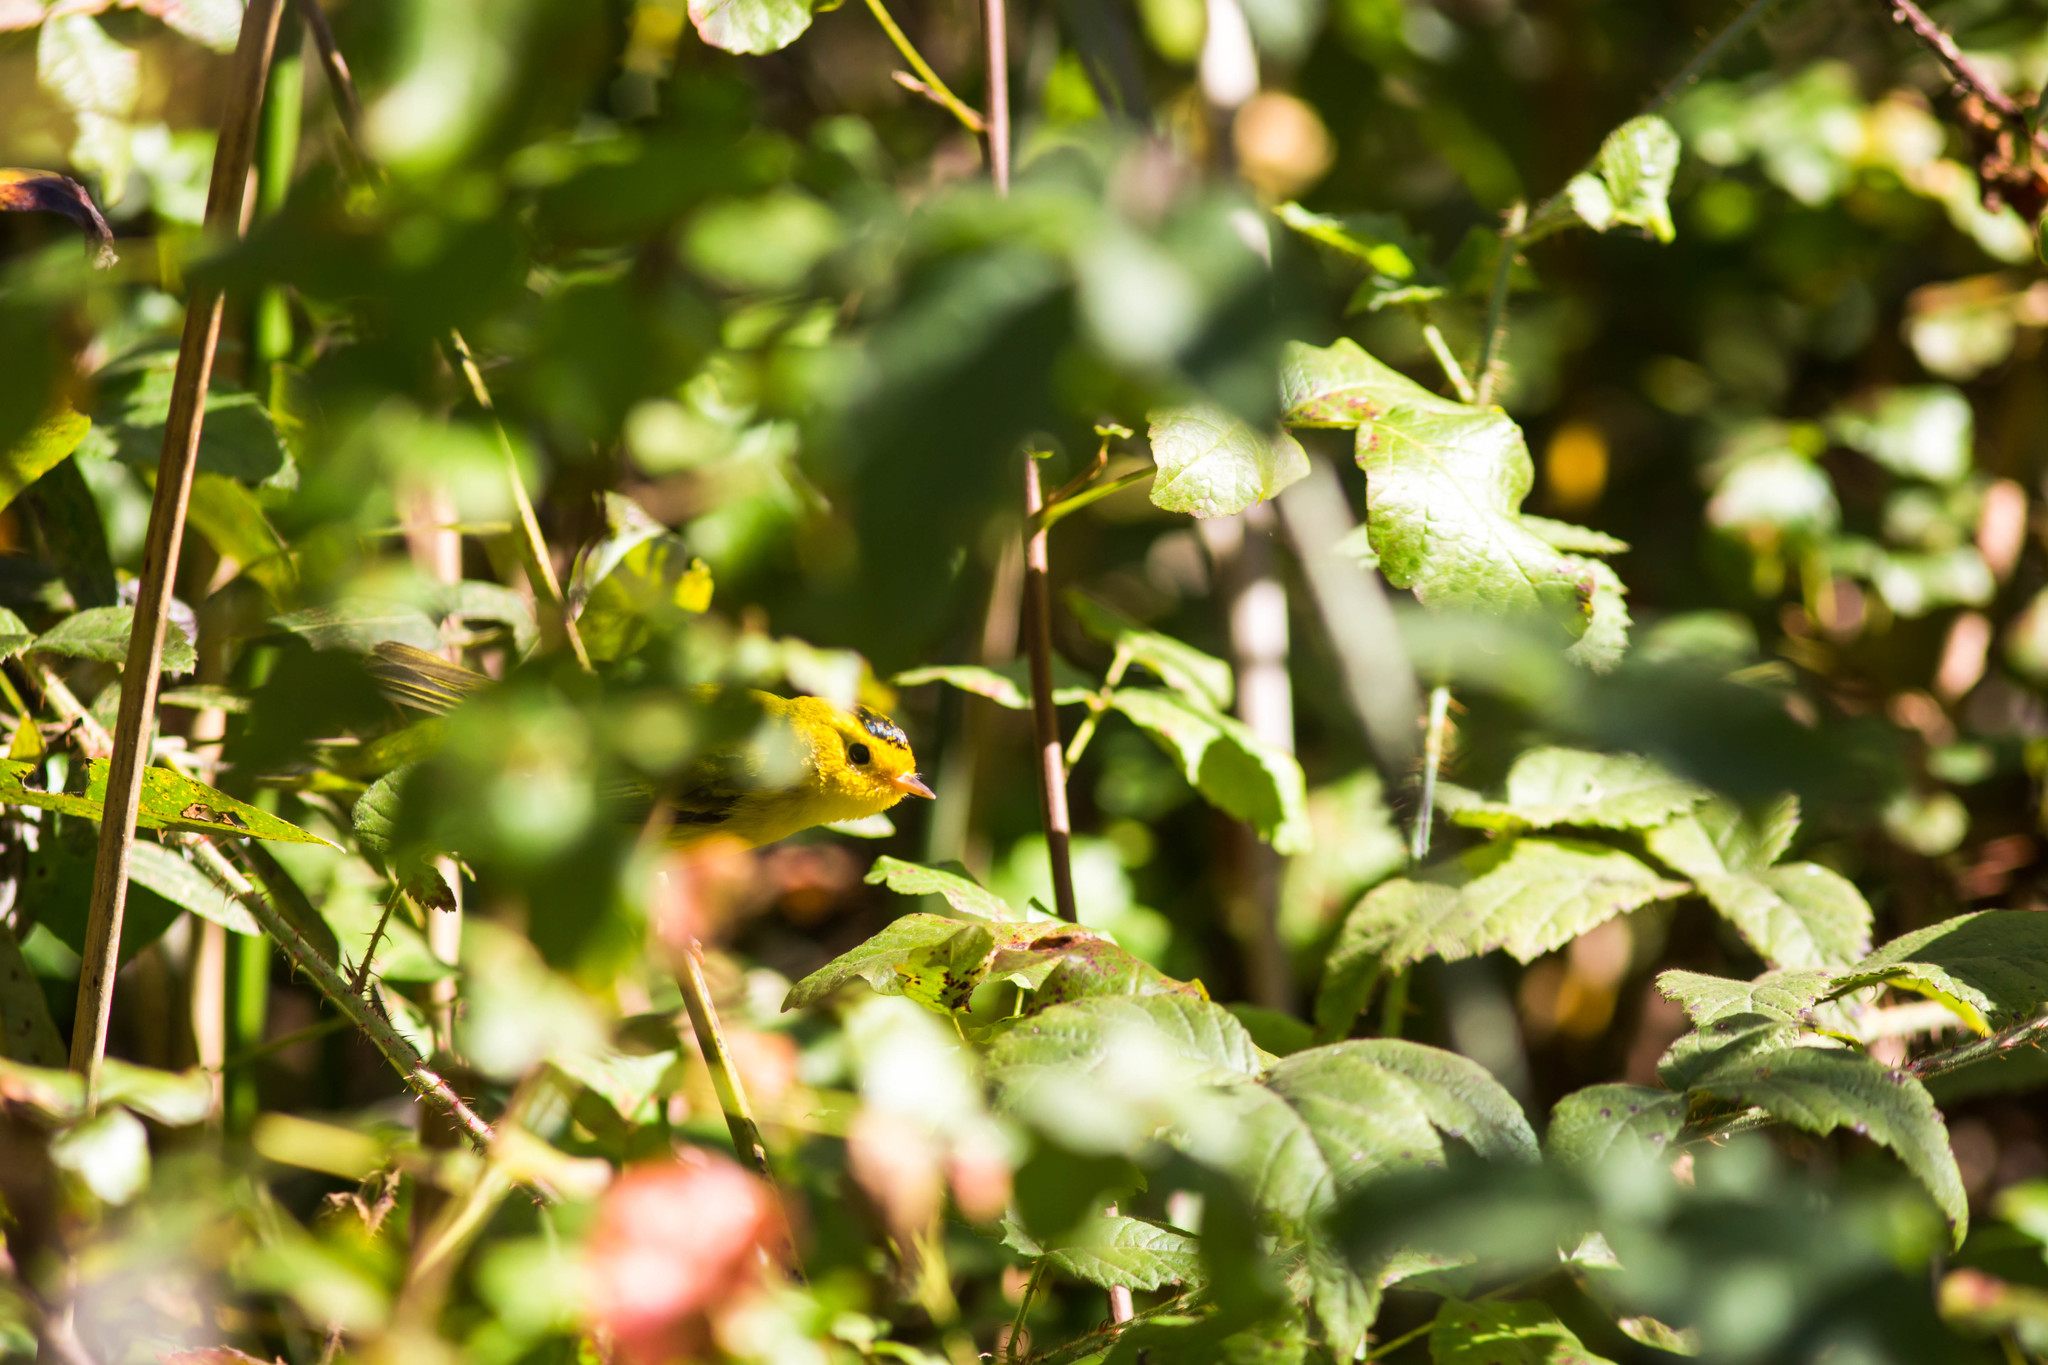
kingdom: Animalia
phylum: Chordata
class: Aves
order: Passeriformes
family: Parulidae
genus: Cardellina
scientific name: Cardellina pusilla
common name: Wilson's warbler
